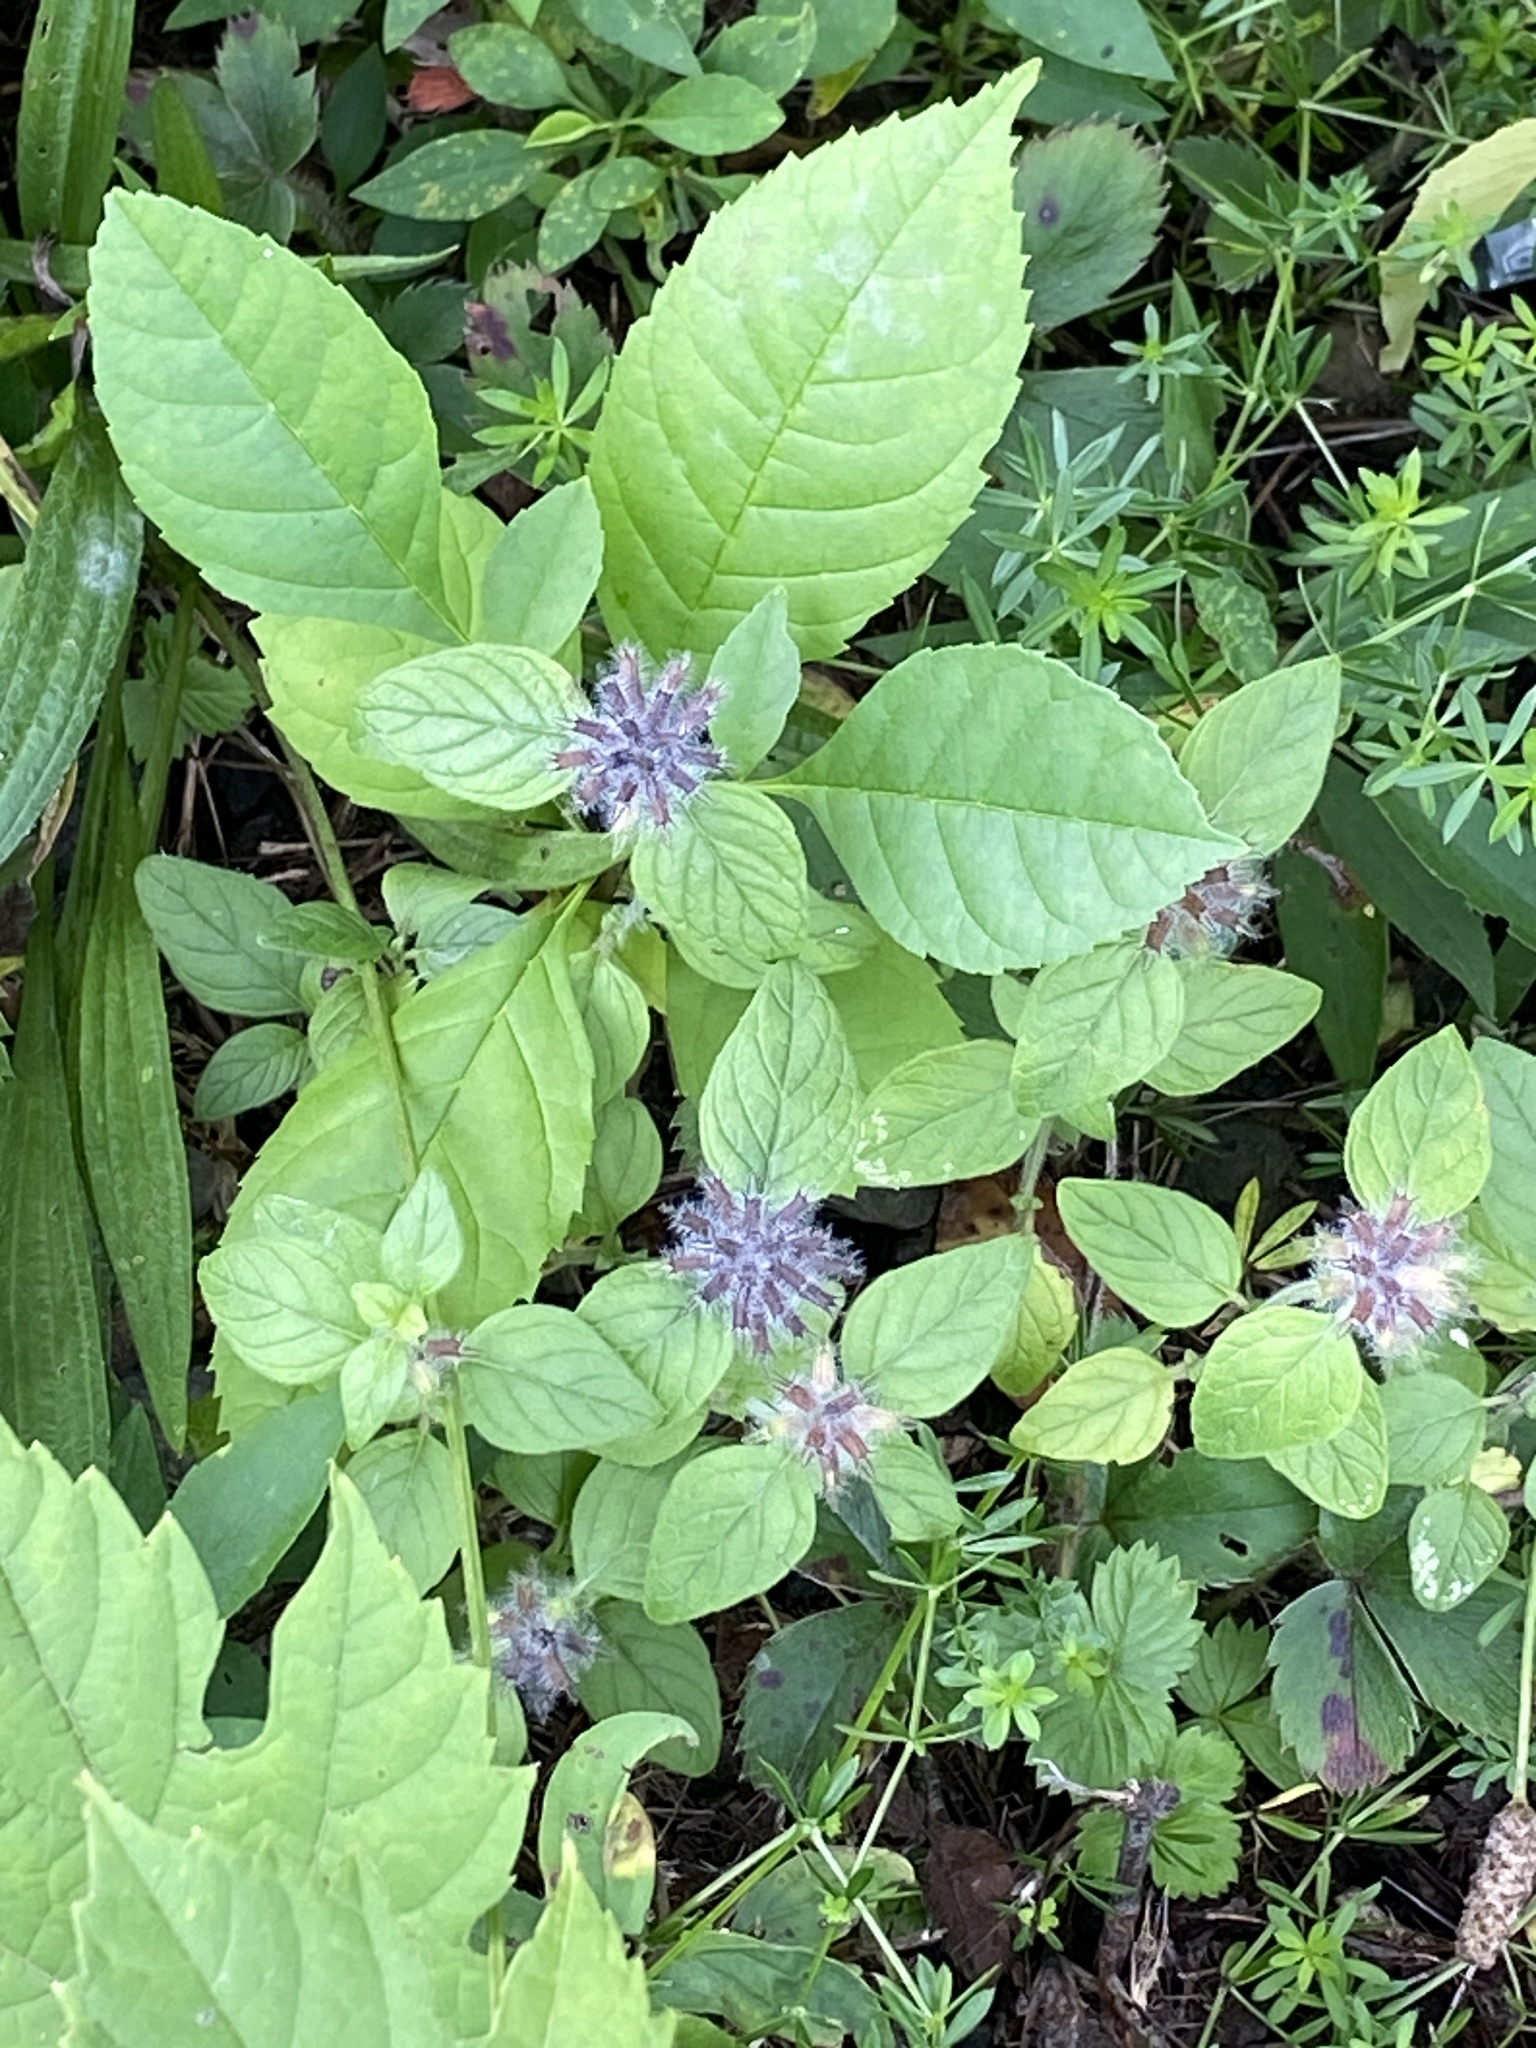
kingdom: Plantae
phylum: Tracheophyta
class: Magnoliopsida
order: Lamiales
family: Lamiaceae
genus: Clinopodium
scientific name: Clinopodium vulgare
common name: Wild basil
